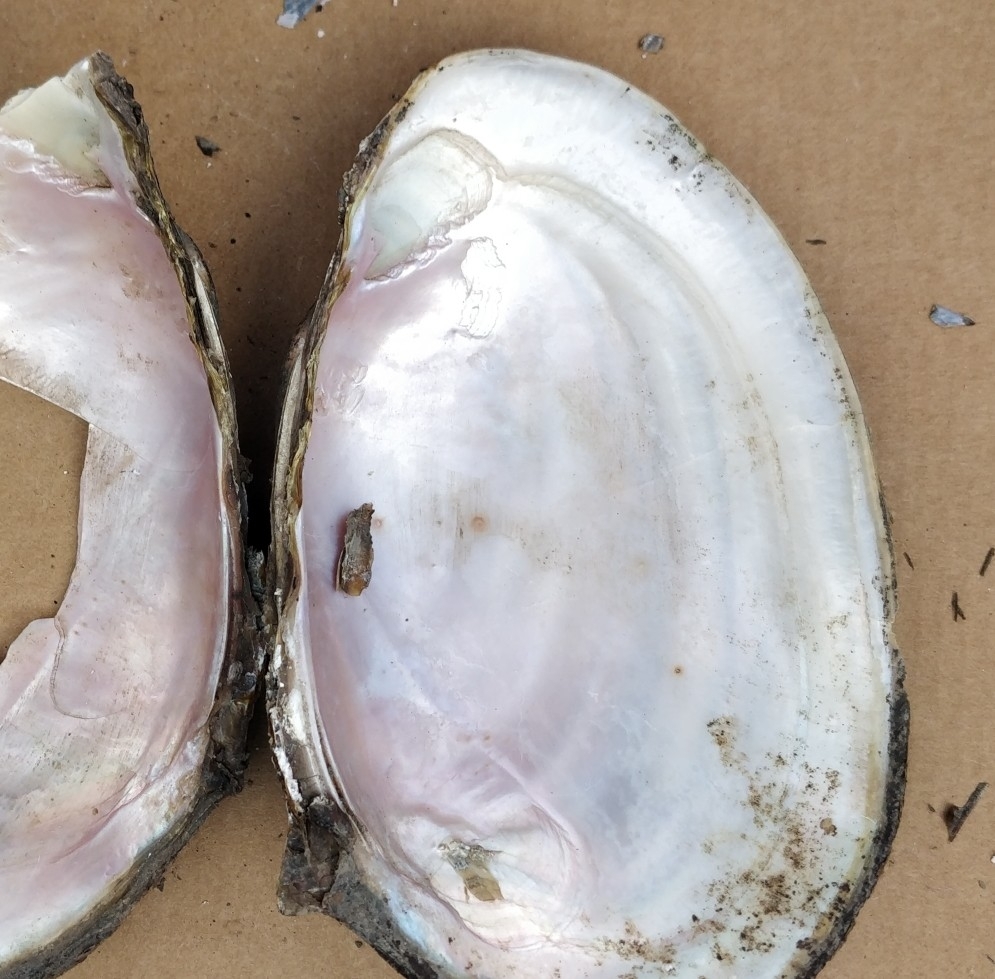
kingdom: Animalia
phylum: Mollusca
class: Bivalvia
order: Unionida
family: Unionidae
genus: Potamilus
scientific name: Potamilus fragilis
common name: Fragile papershell
